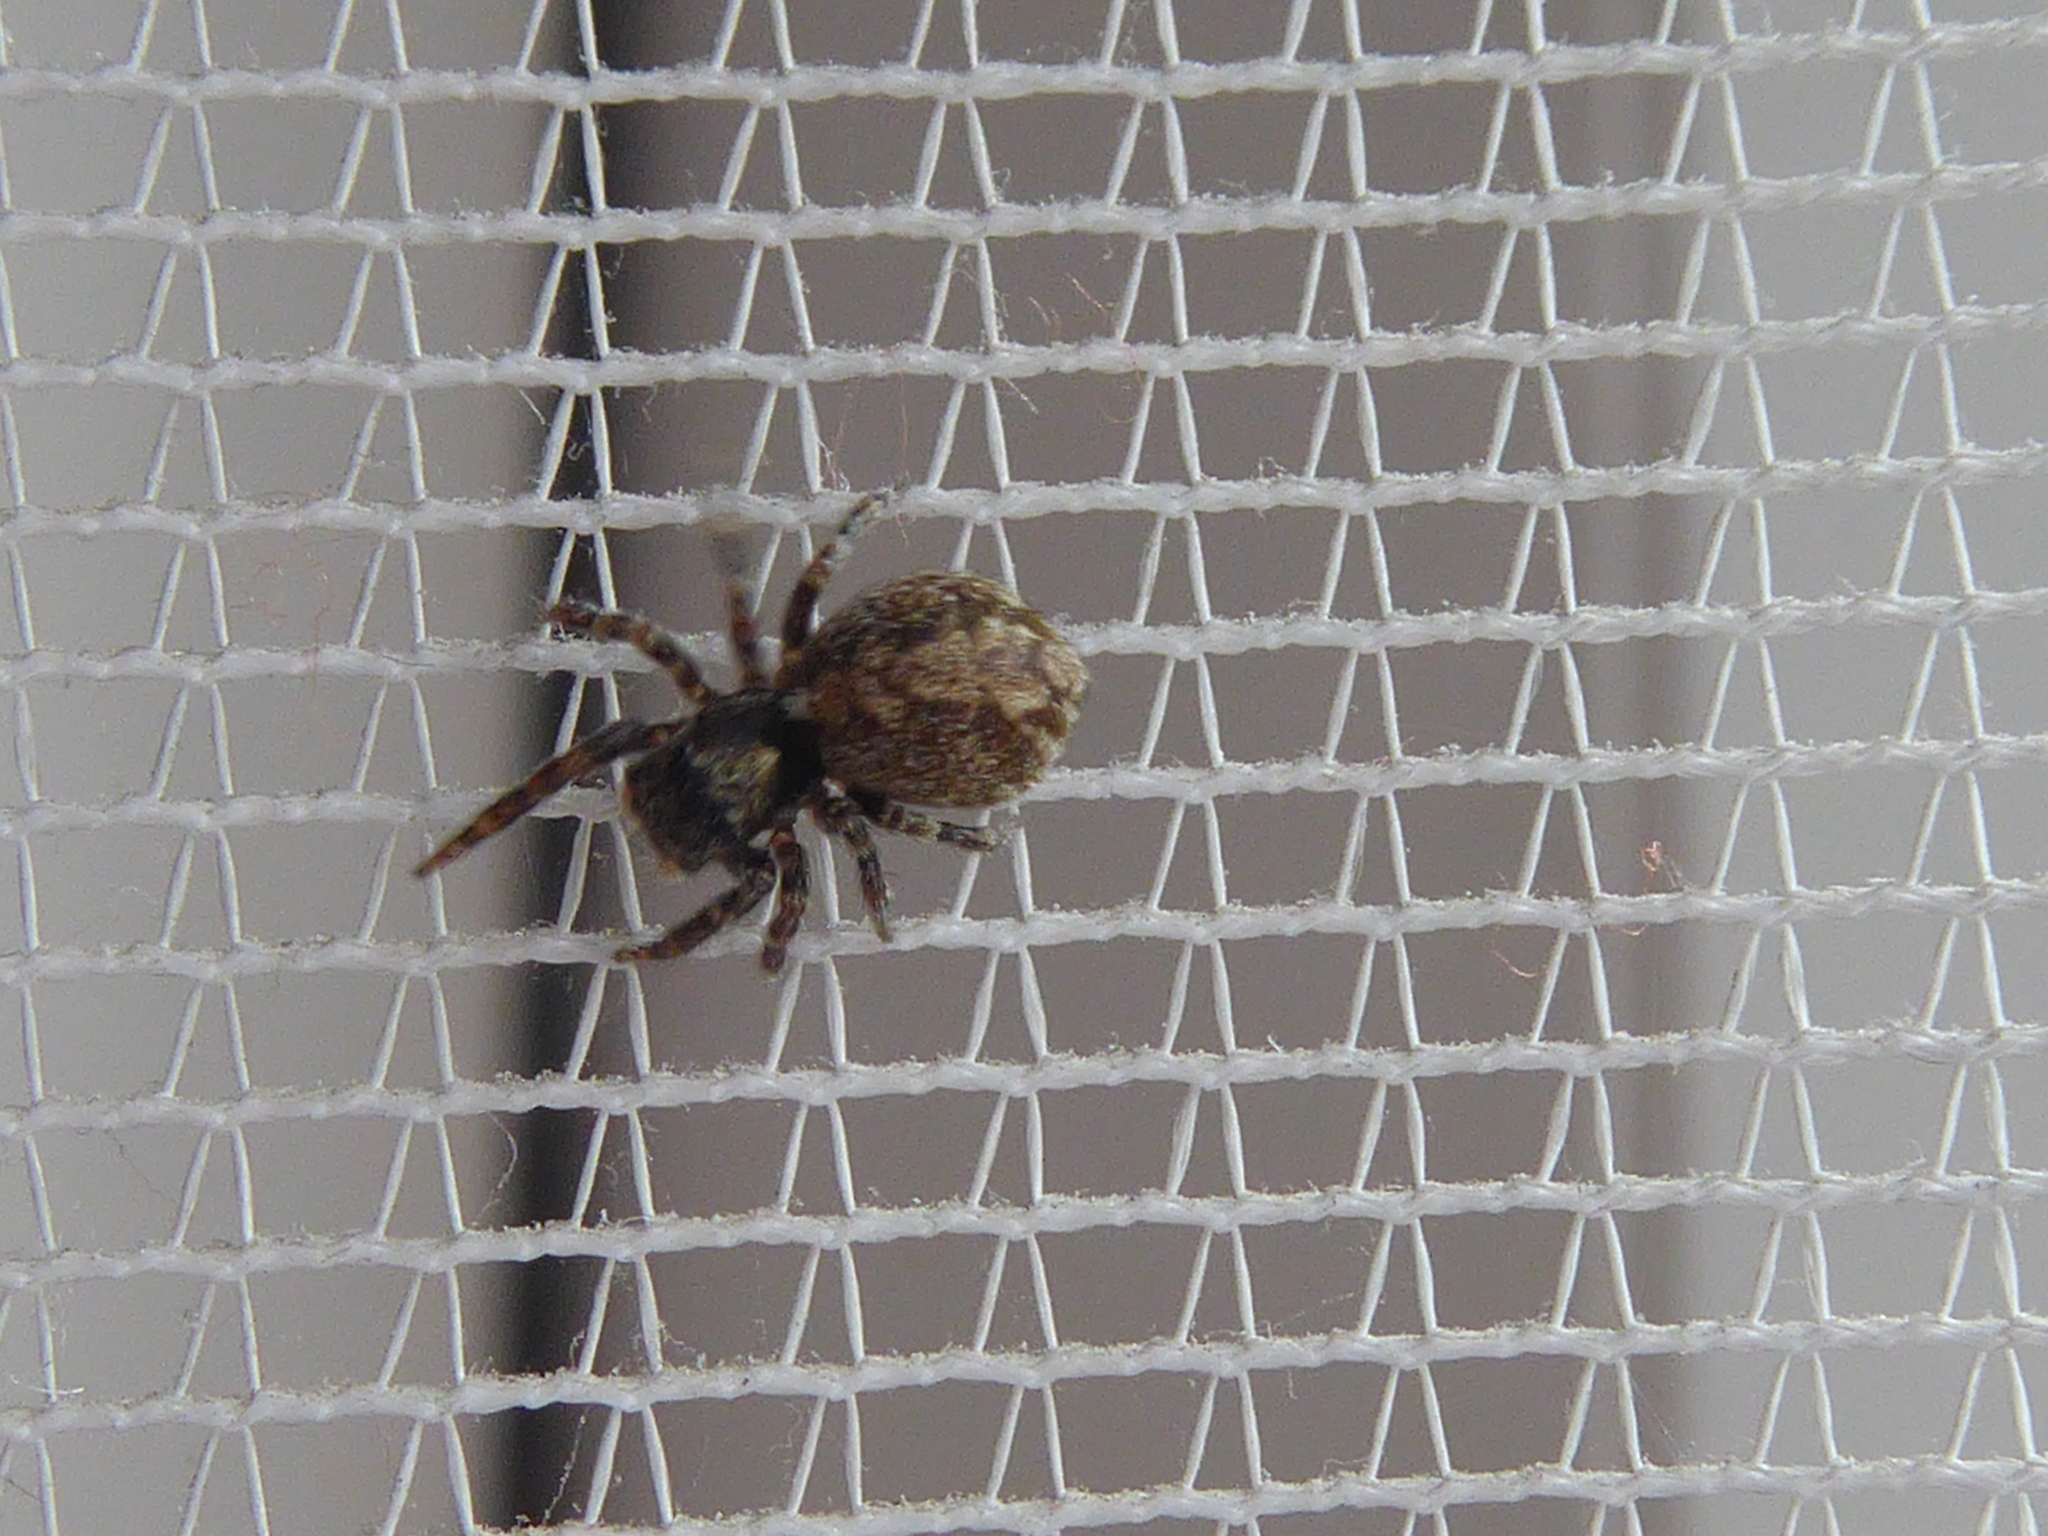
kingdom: Animalia
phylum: Arthropoda
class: Arachnida
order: Araneae
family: Salticidae
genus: Pseudeuophrys
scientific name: Pseudeuophrys lanigera
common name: Jumping spider
